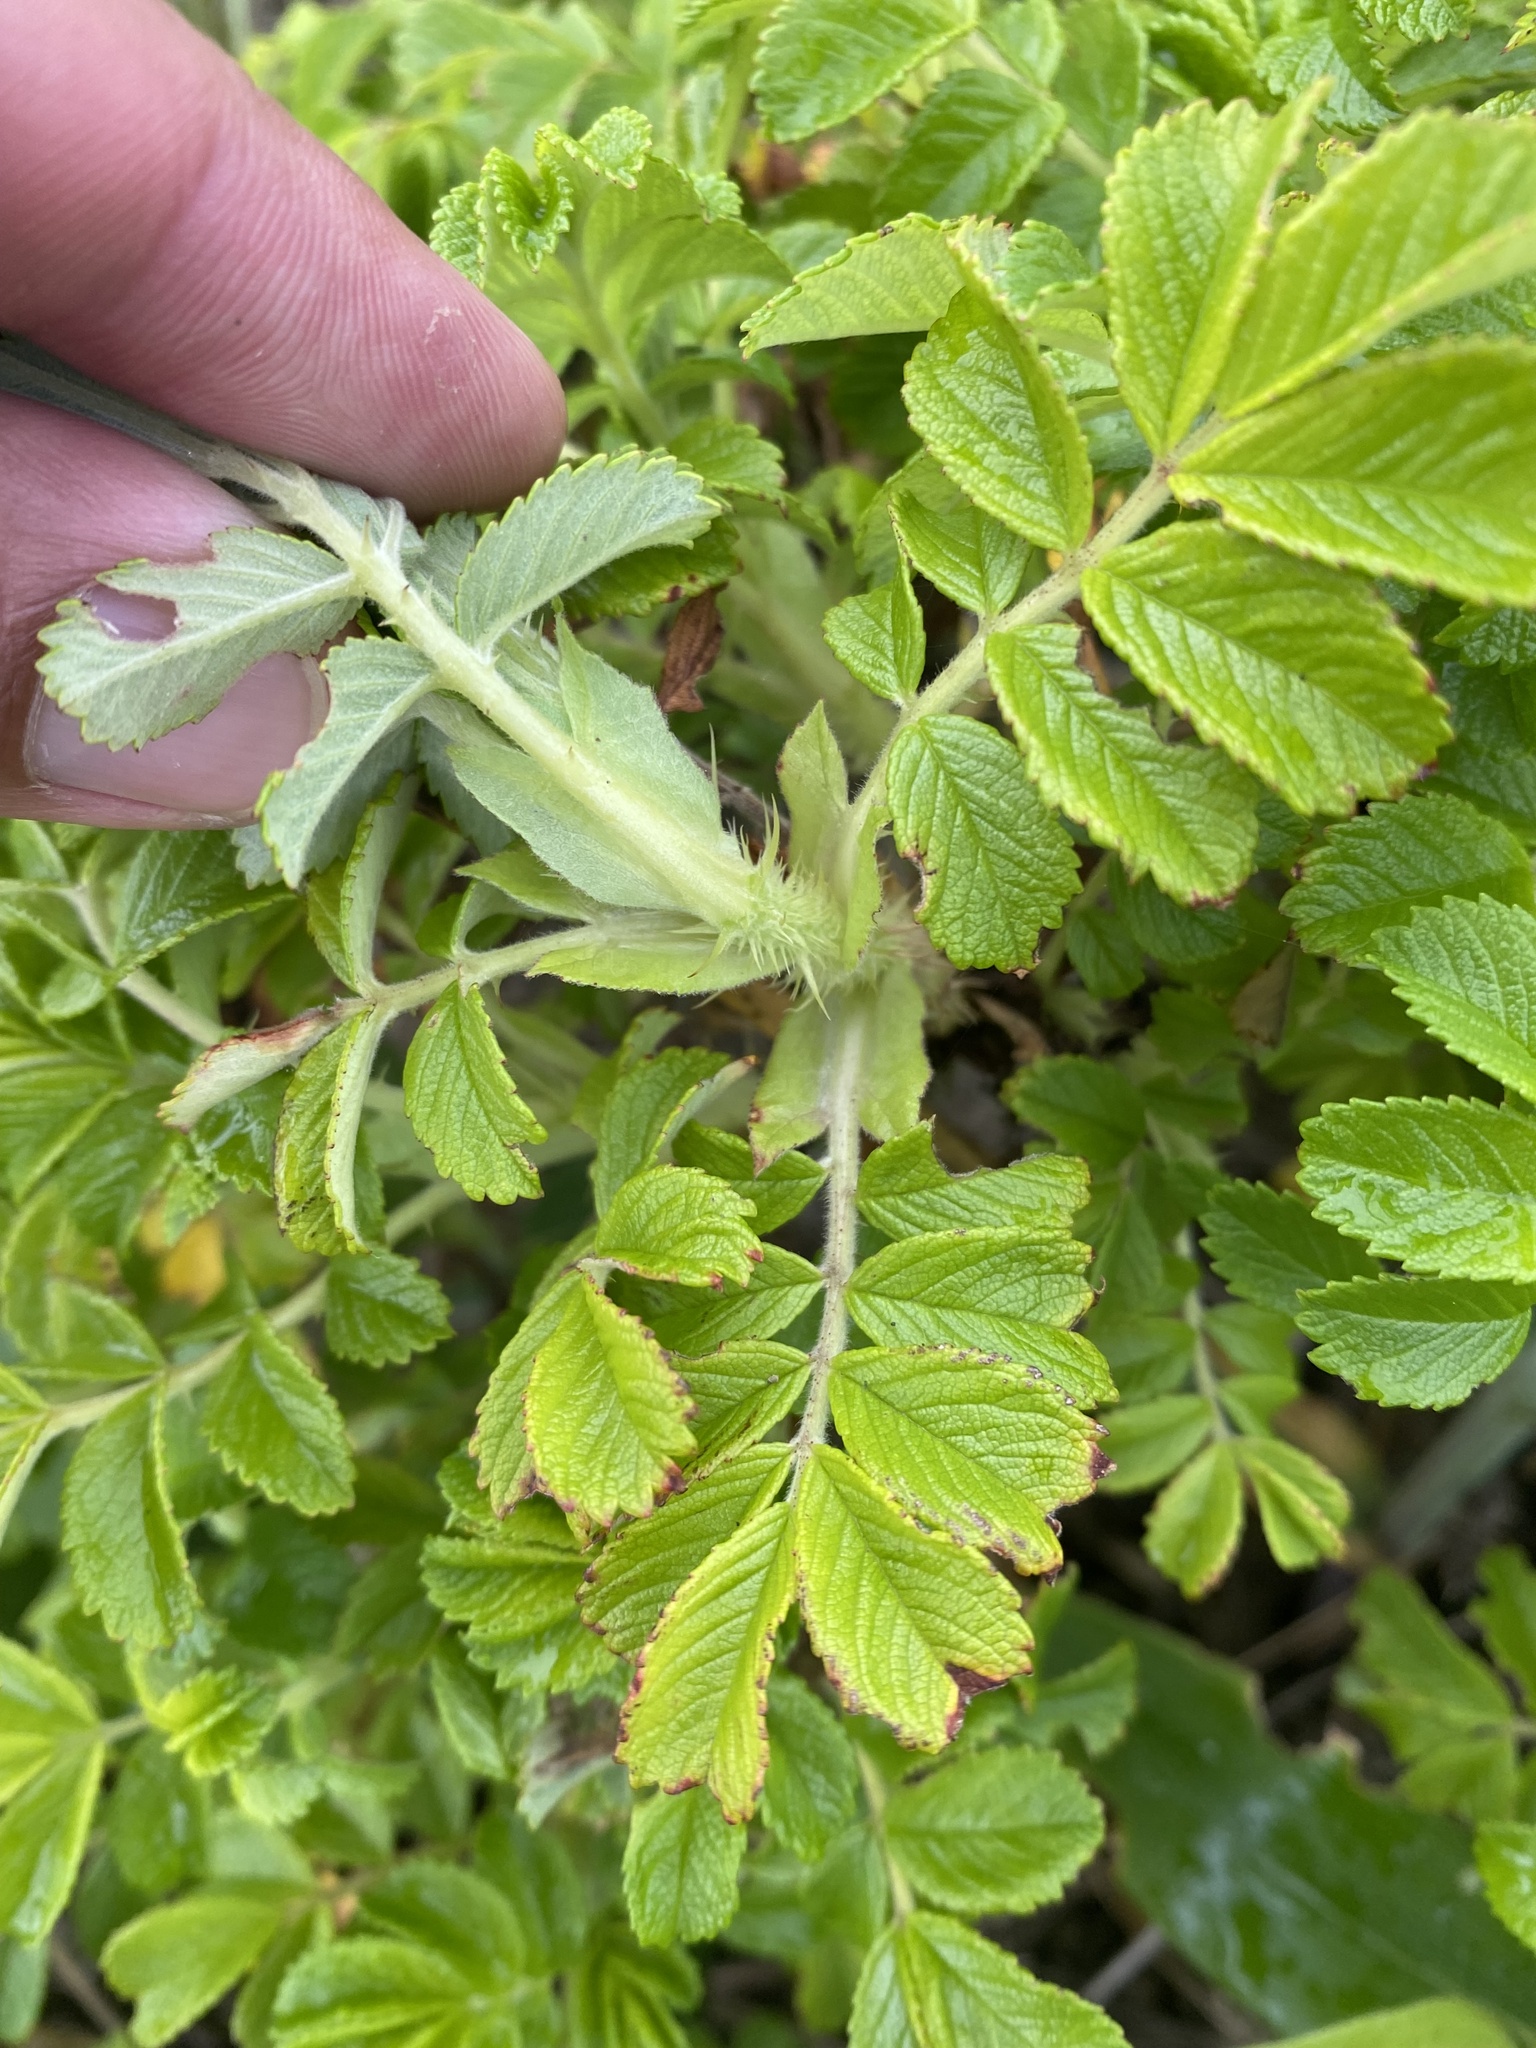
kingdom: Plantae
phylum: Tracheophyta
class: Magnoliopsida
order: Rosales
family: Rosaceae
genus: Rosa
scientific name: Rosa rugosa
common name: Japanese rose
